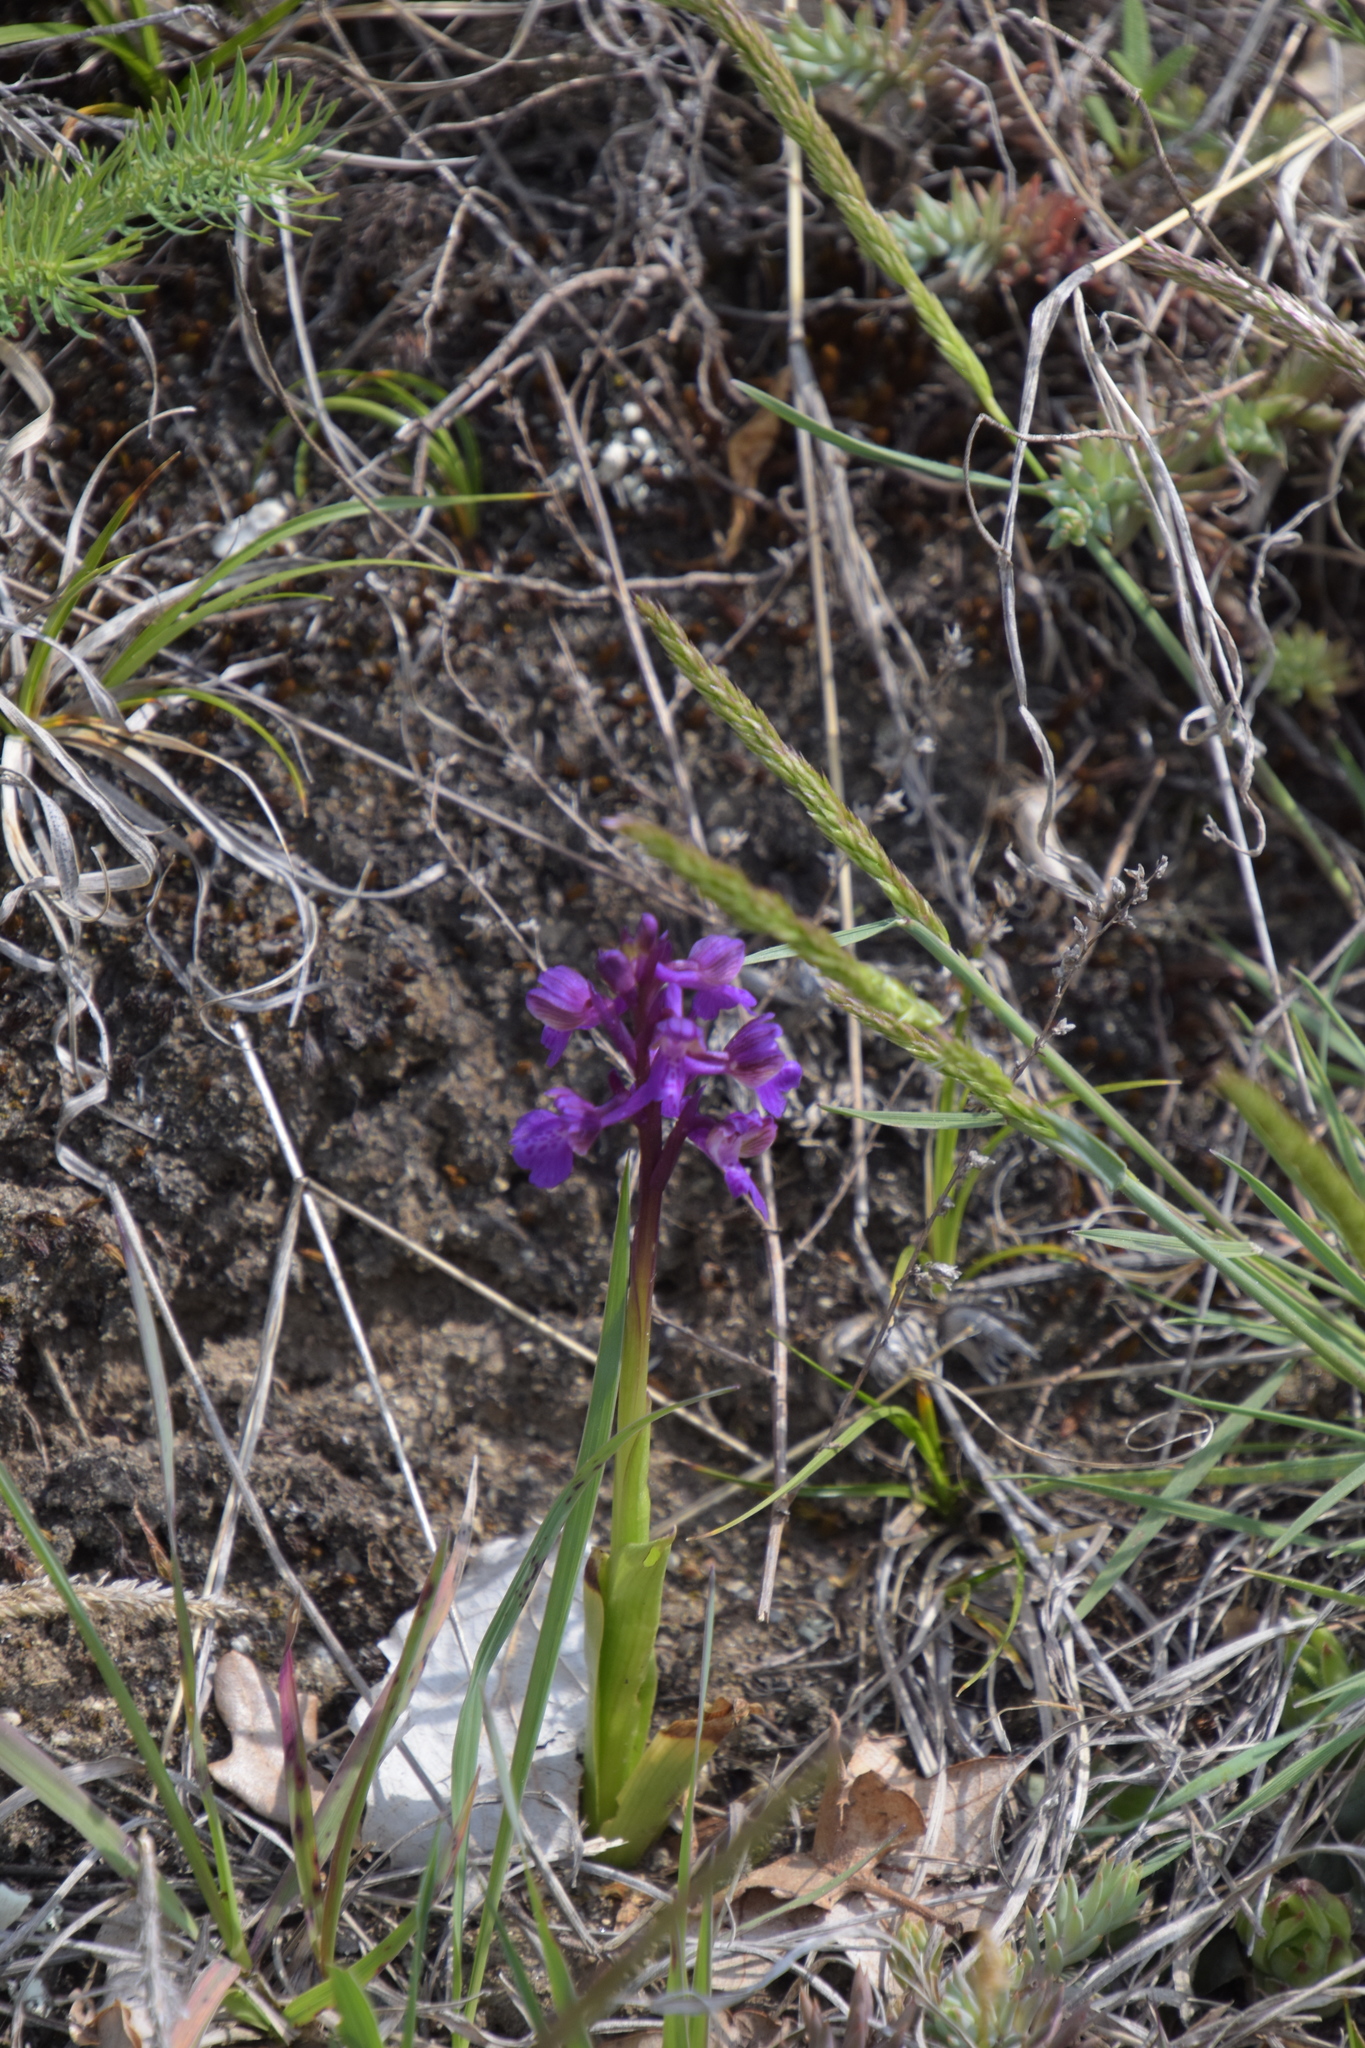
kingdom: Plantae
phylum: Tracheophyta
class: Liliopsida
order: Asparagales
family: Orchidaceae
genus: Anacamptis
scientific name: Anacamptis morio
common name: Green-winged orchid
